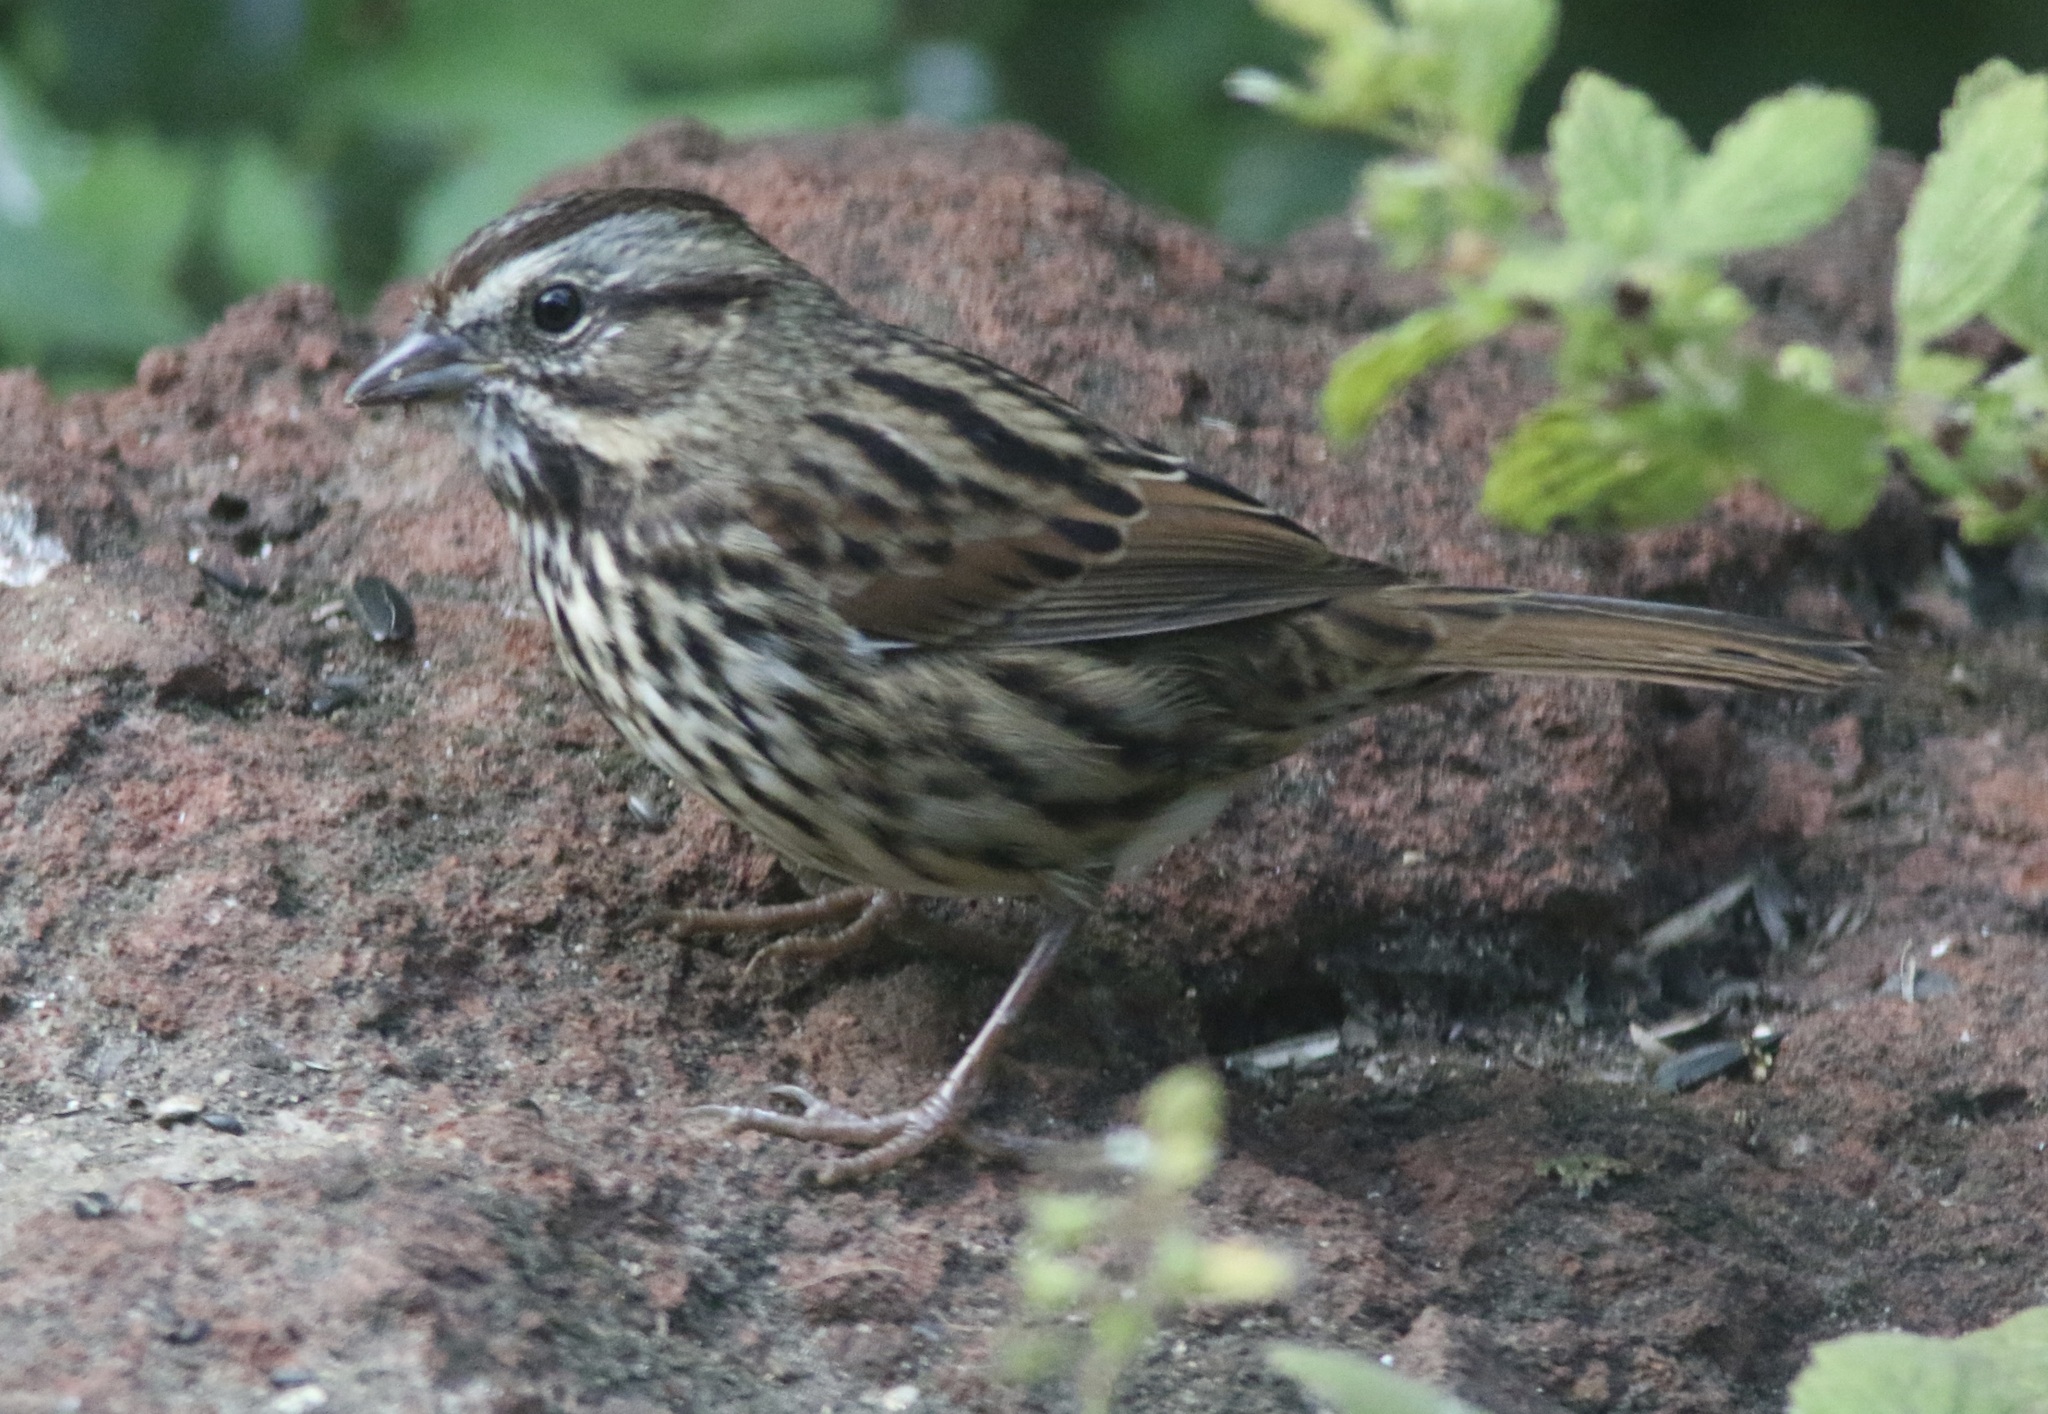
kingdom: Animalia
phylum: Chordata
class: Mammalia
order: Rodentia
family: Cricetidae
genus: Microtus
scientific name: Microtus californicus
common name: California vole
